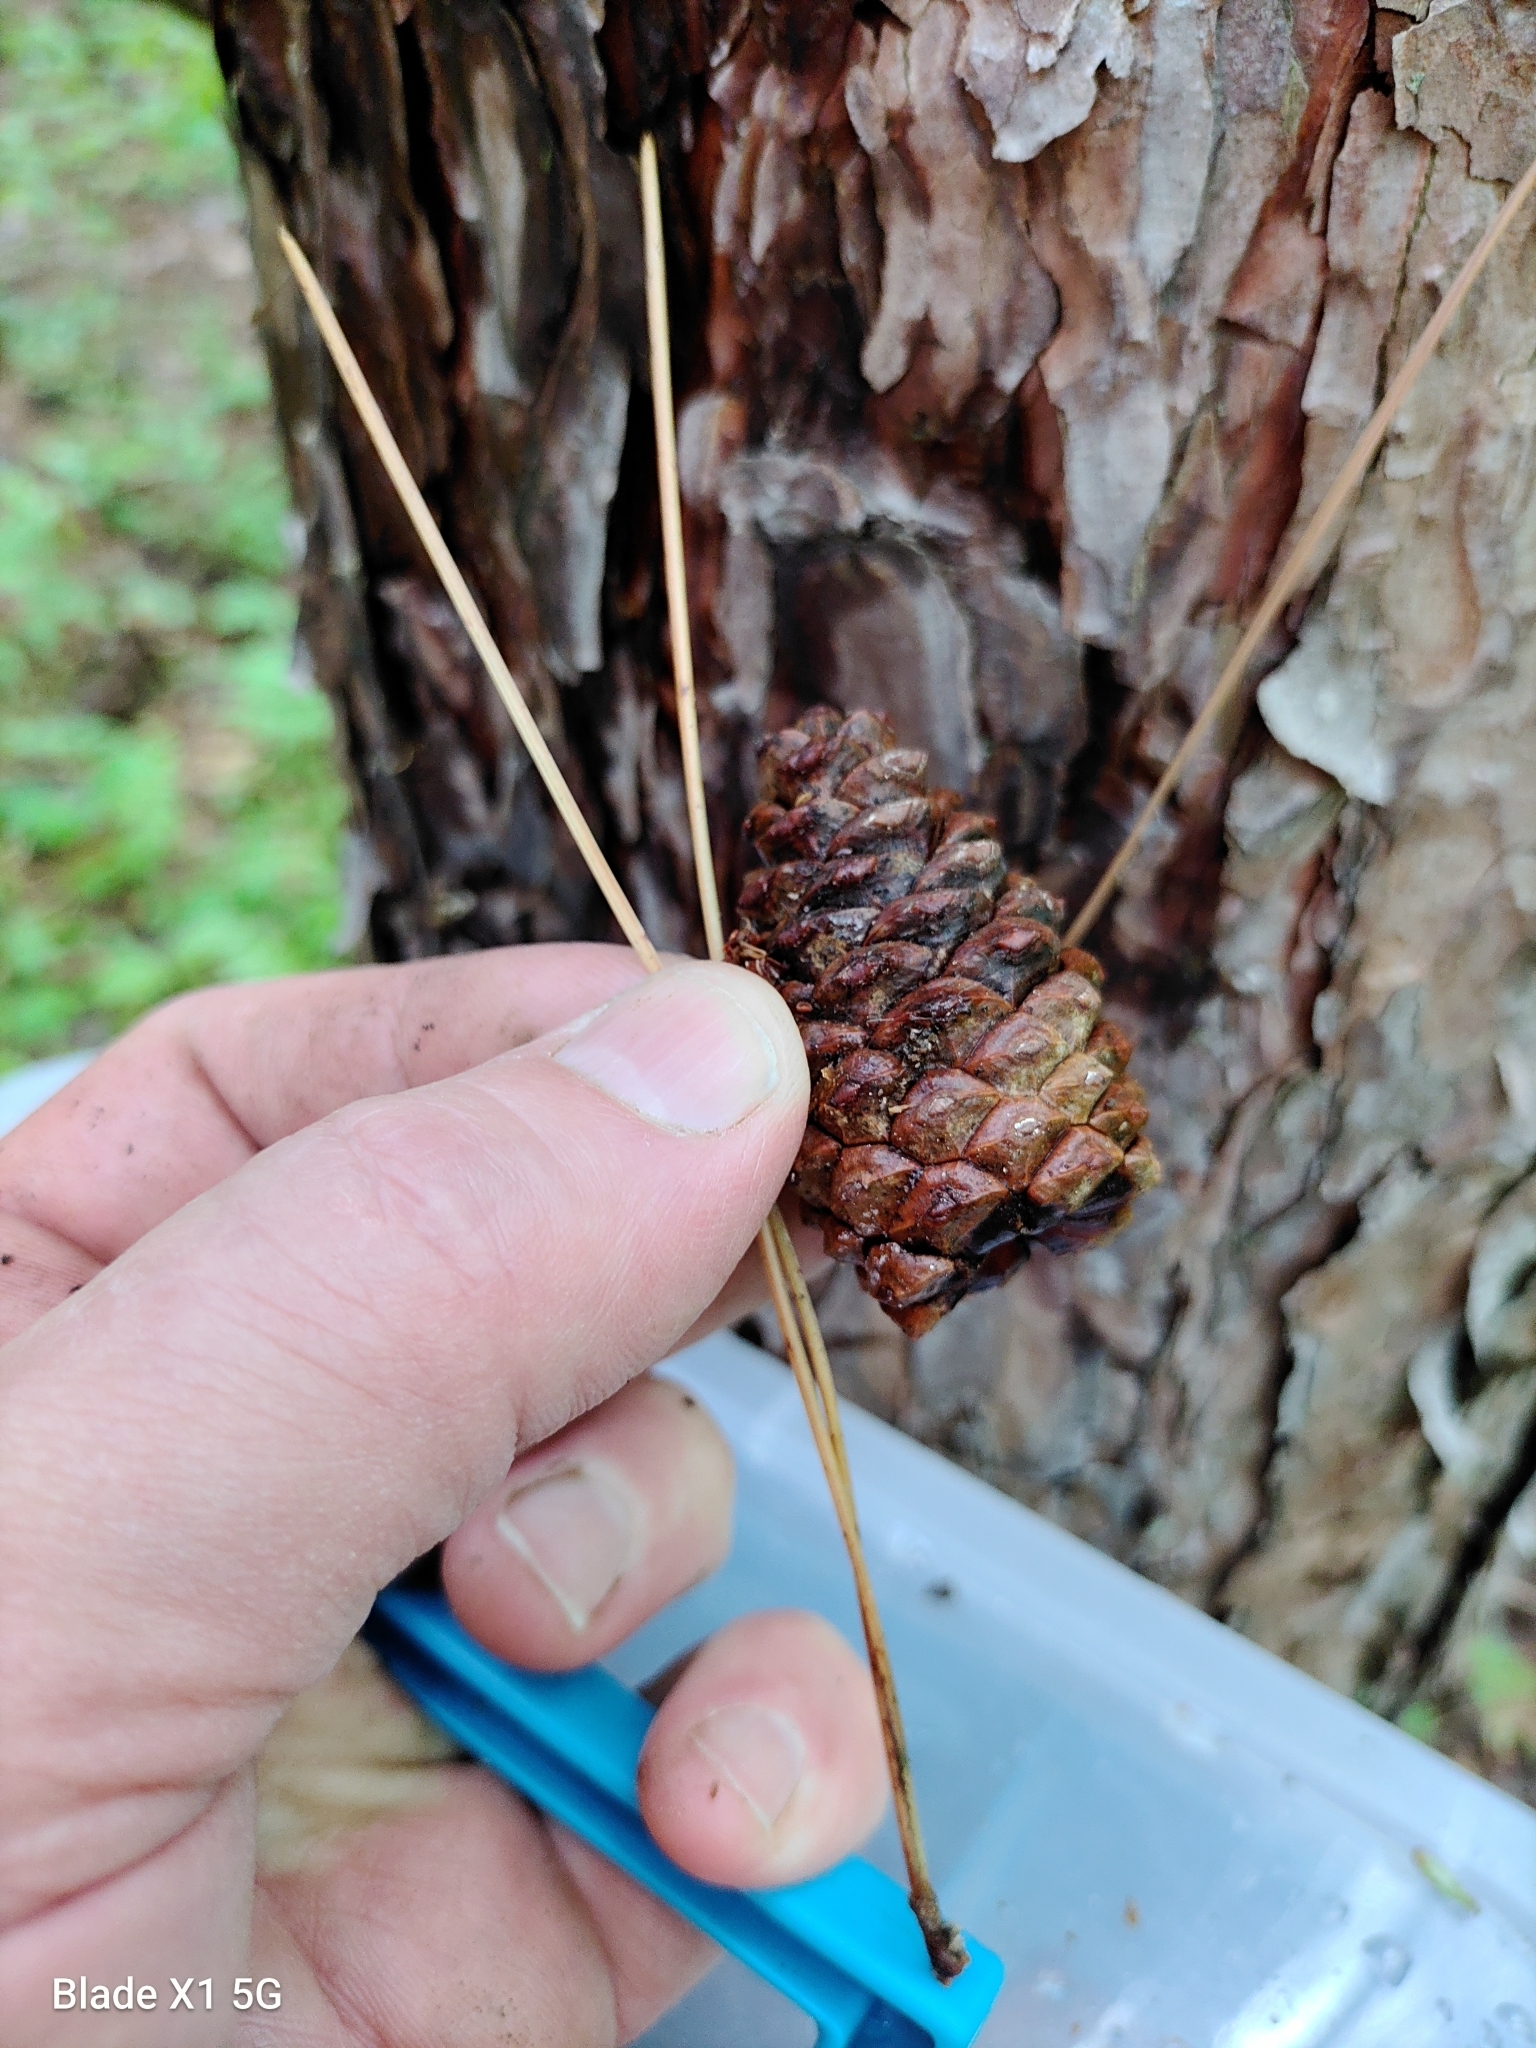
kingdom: Plantae
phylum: Tracheophyta
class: Pinopsida
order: Pinales
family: Pinaceae
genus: Pinus
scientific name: Pinus resinosa
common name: Norway pine
